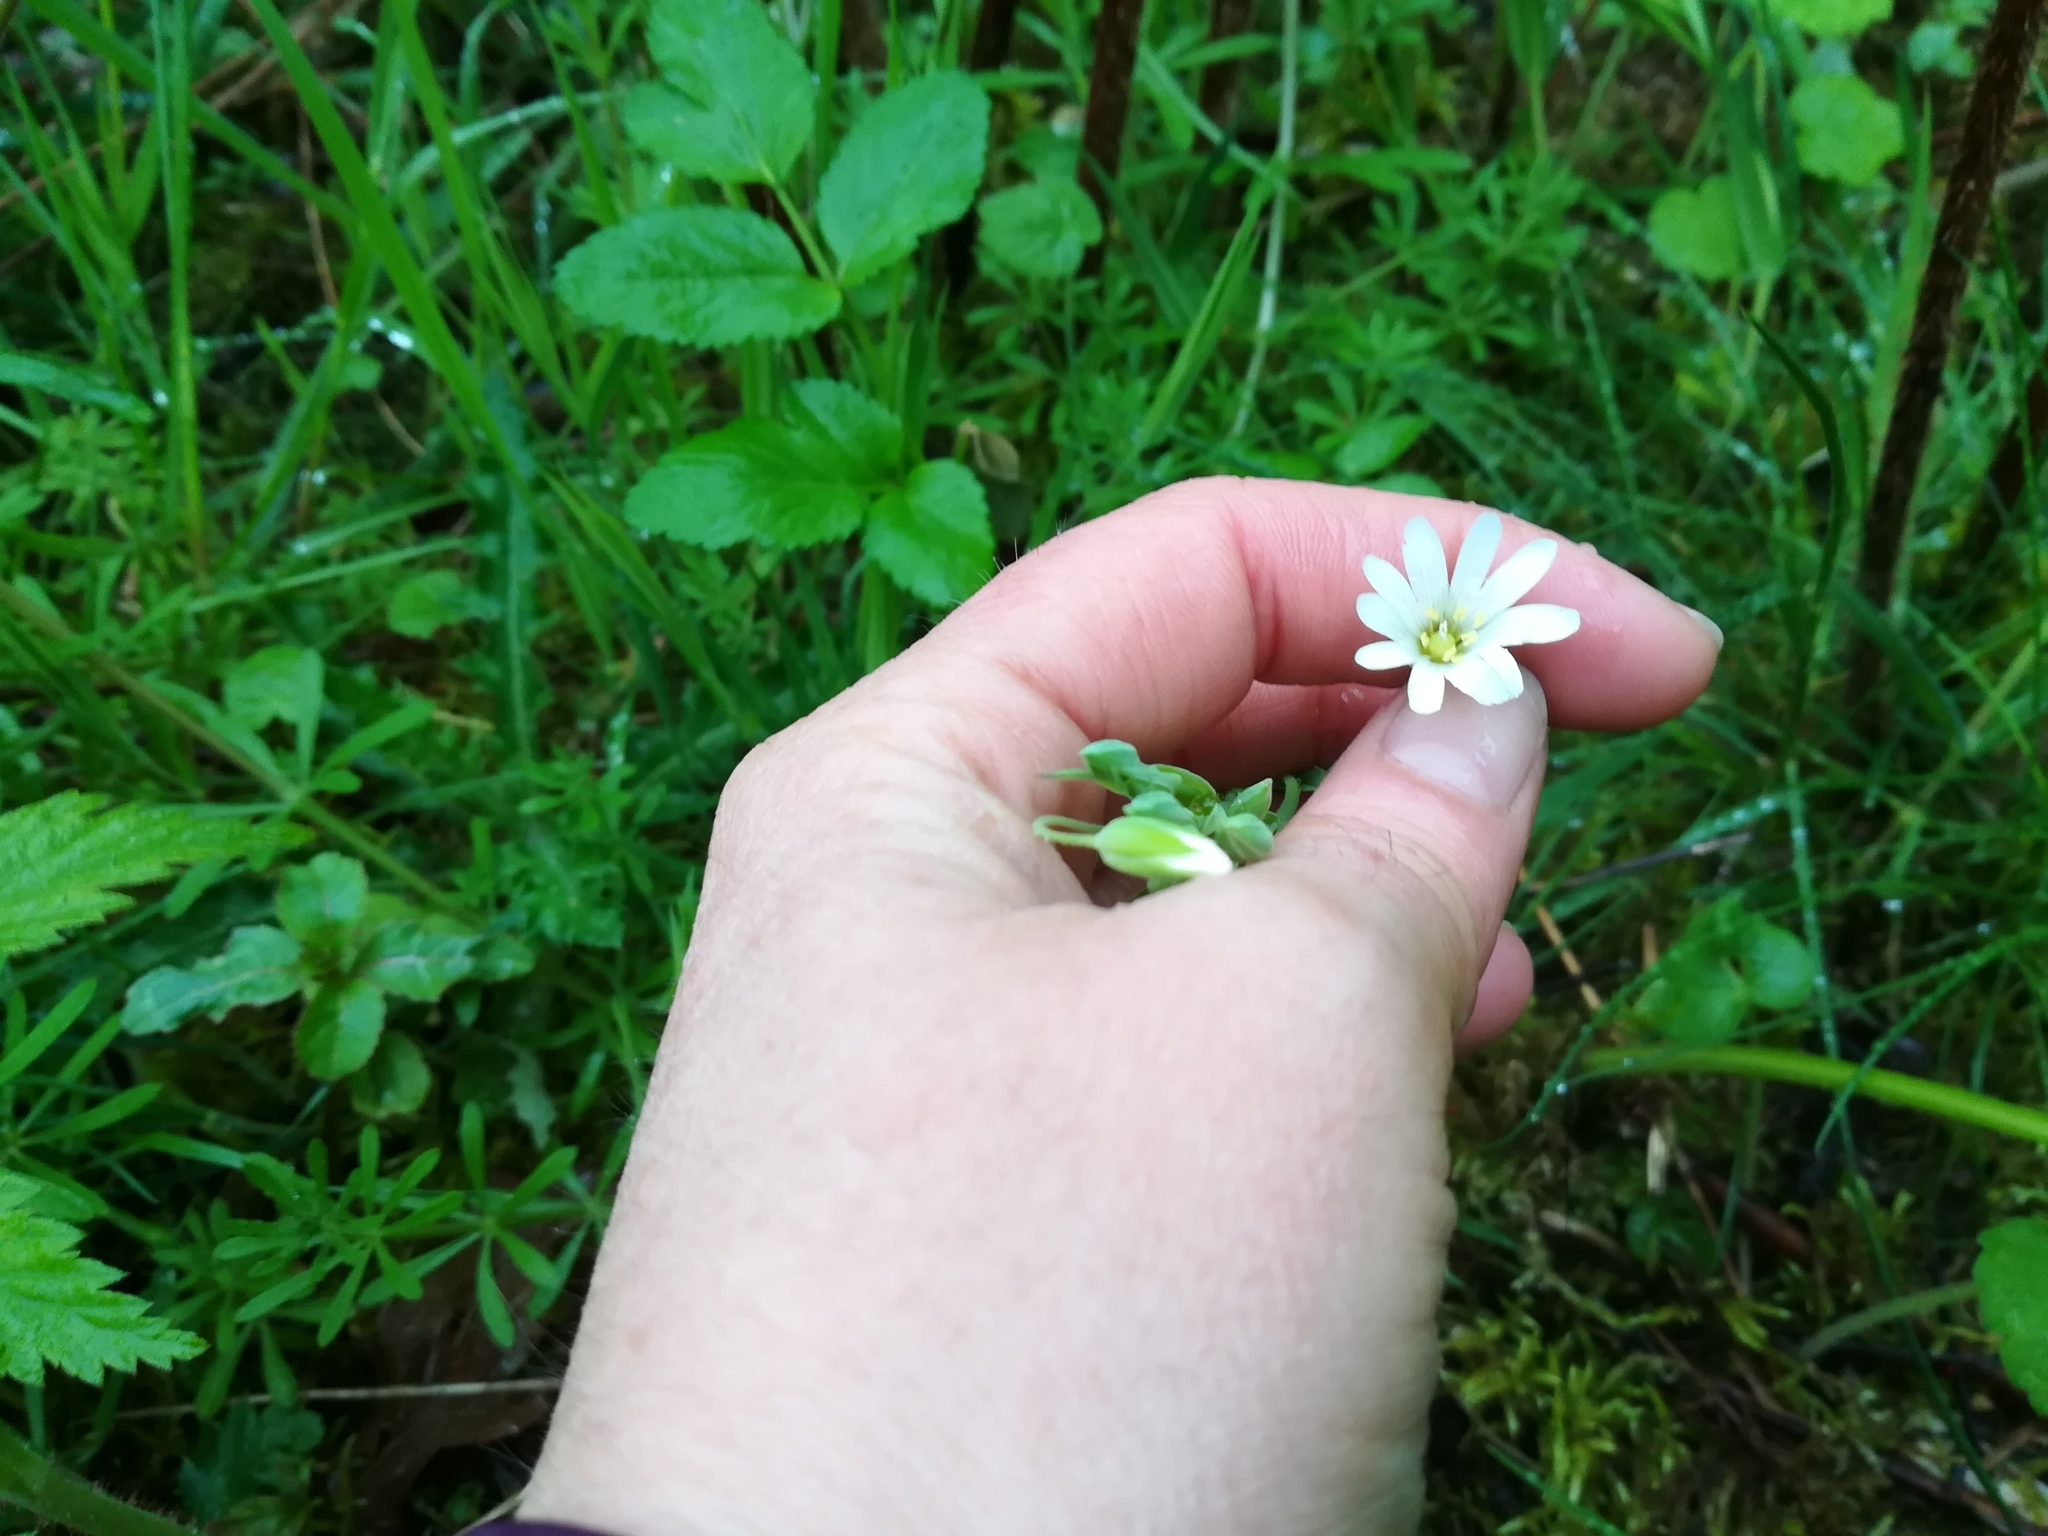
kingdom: Plantae
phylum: Tracheophyta
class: Magnoliopsida
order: Caryophyllales
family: Caryophyllaceae
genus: Rabelera
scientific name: Rabelera holostea
